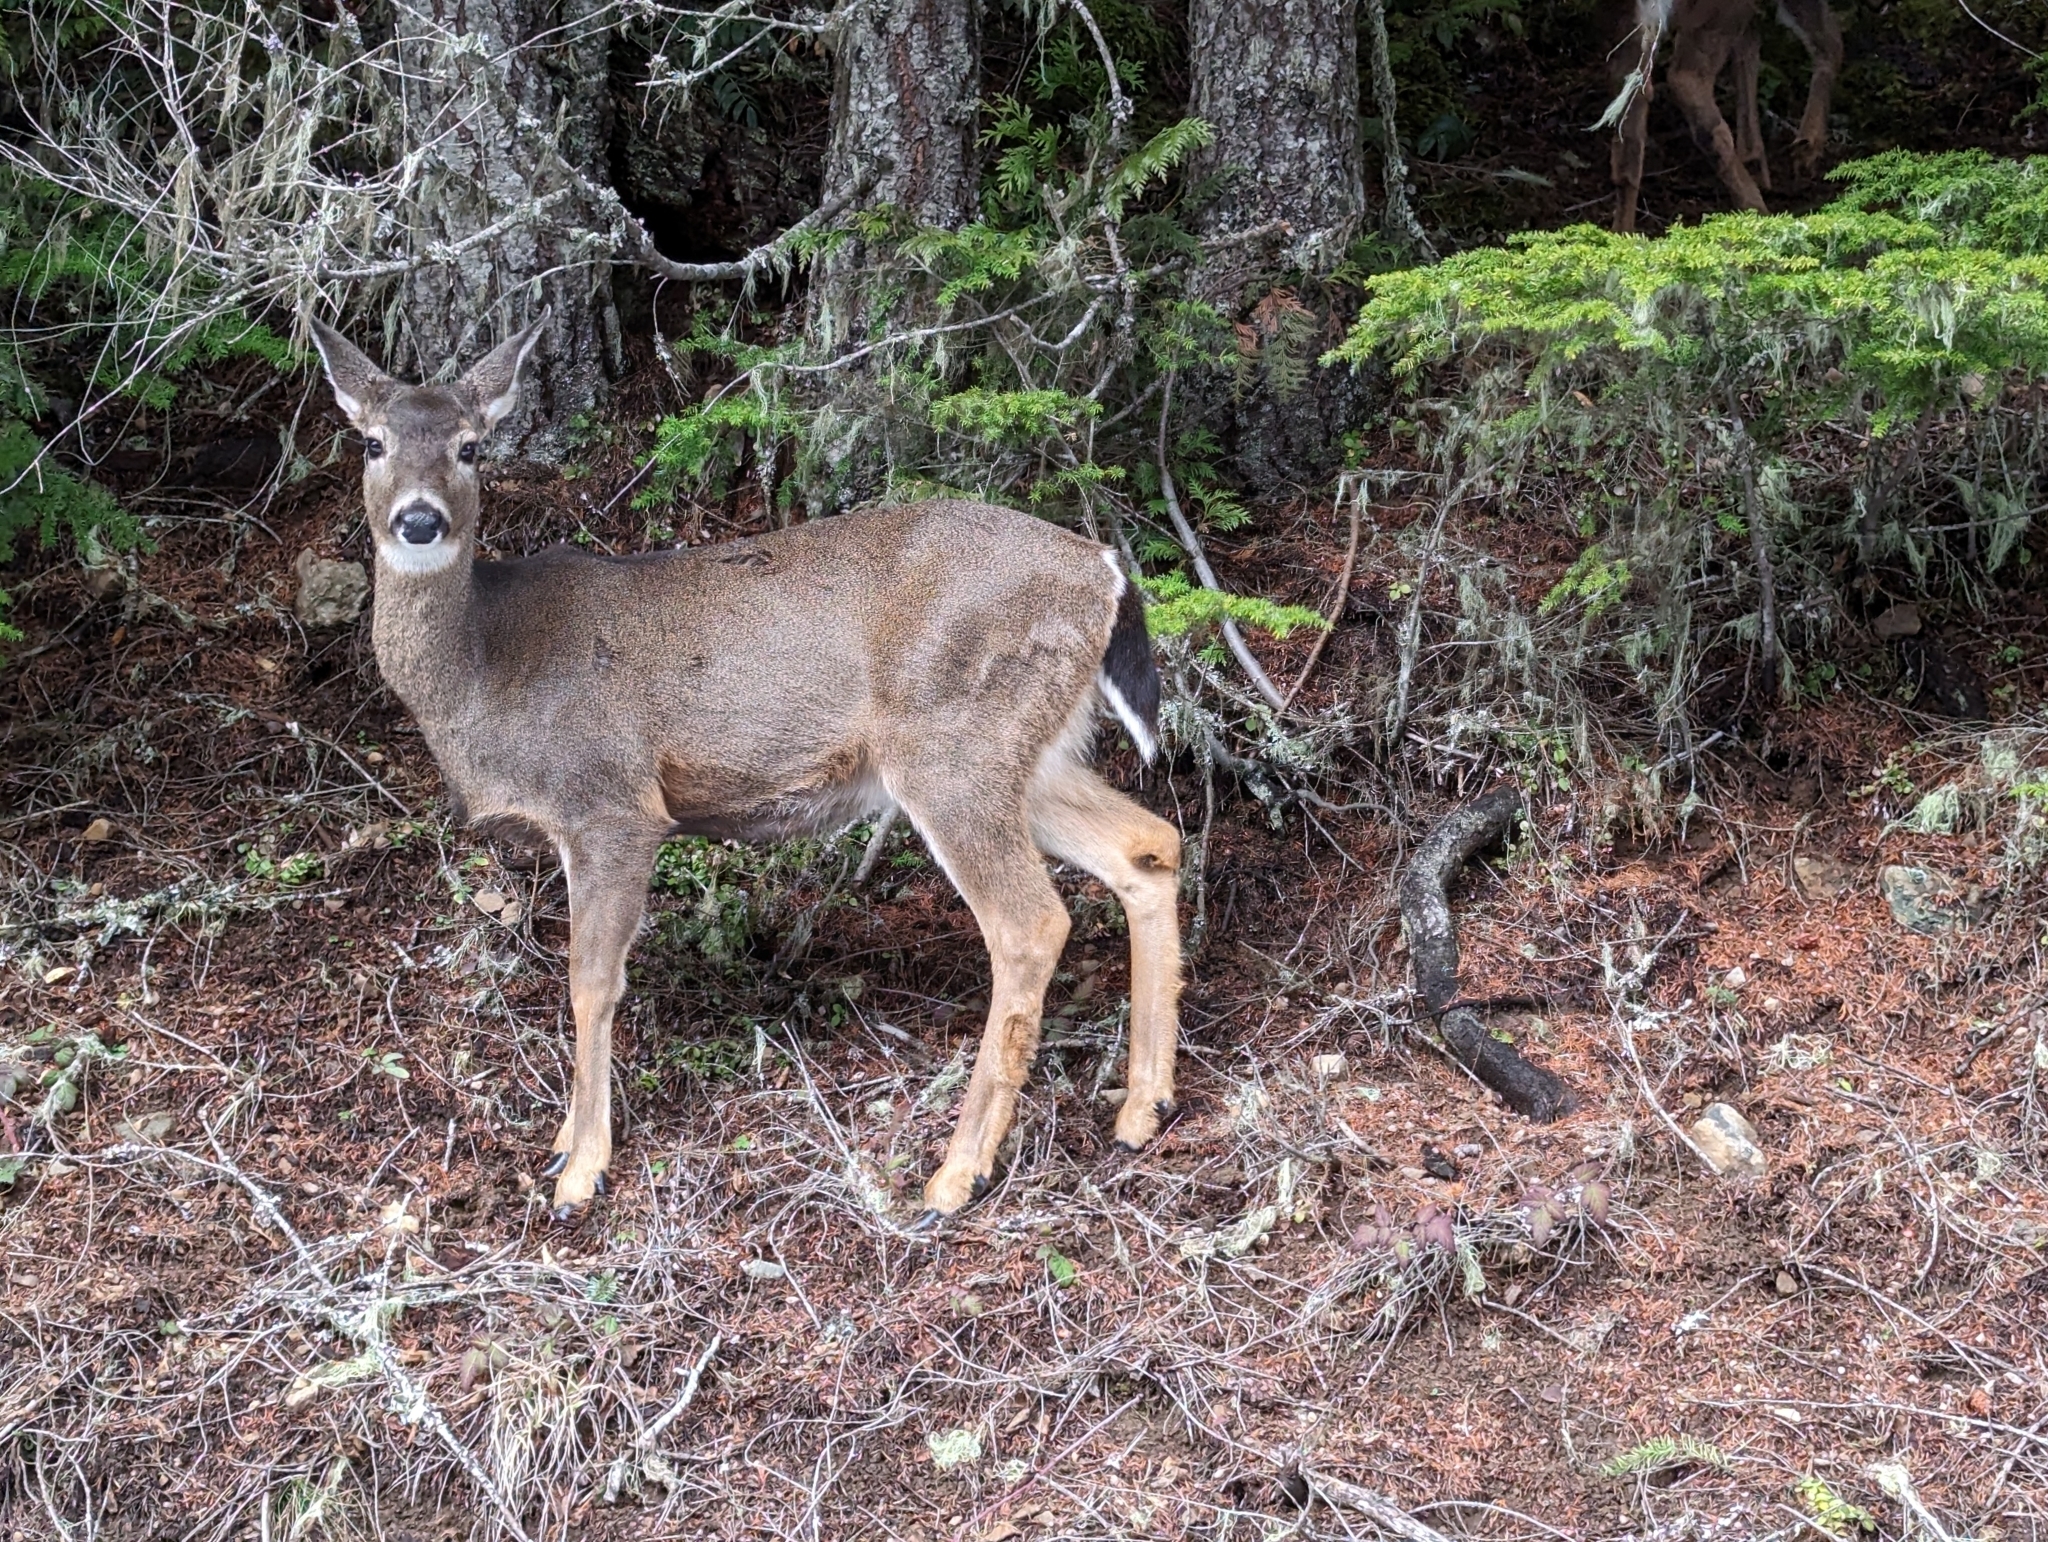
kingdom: Animalia
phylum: Chordata
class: Mammalia
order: Artiodactyla
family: Cervidae
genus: Odocoileus
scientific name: Odocoileus hemionus
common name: Mule deer
